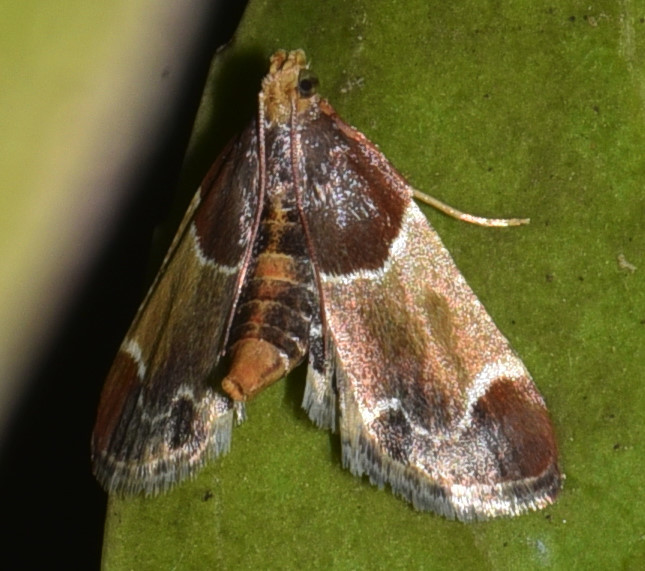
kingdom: Animalia
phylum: Arthropoda
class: Insecta
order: Lepidoptera
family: Pyralidae
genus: Pyralis
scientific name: Pyralis farinalis
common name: Meal moth
